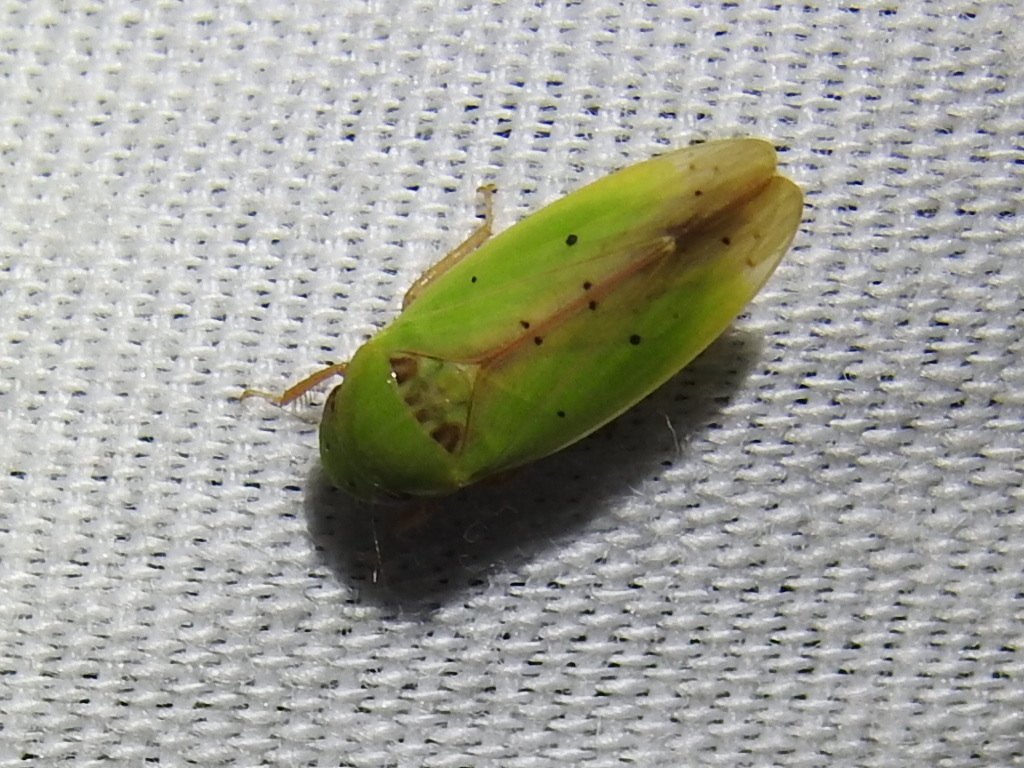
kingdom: Animalia
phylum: Arthropoda
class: Insecta
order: Hemiptera
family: Cicadellidae
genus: Ponana
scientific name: Ponana
